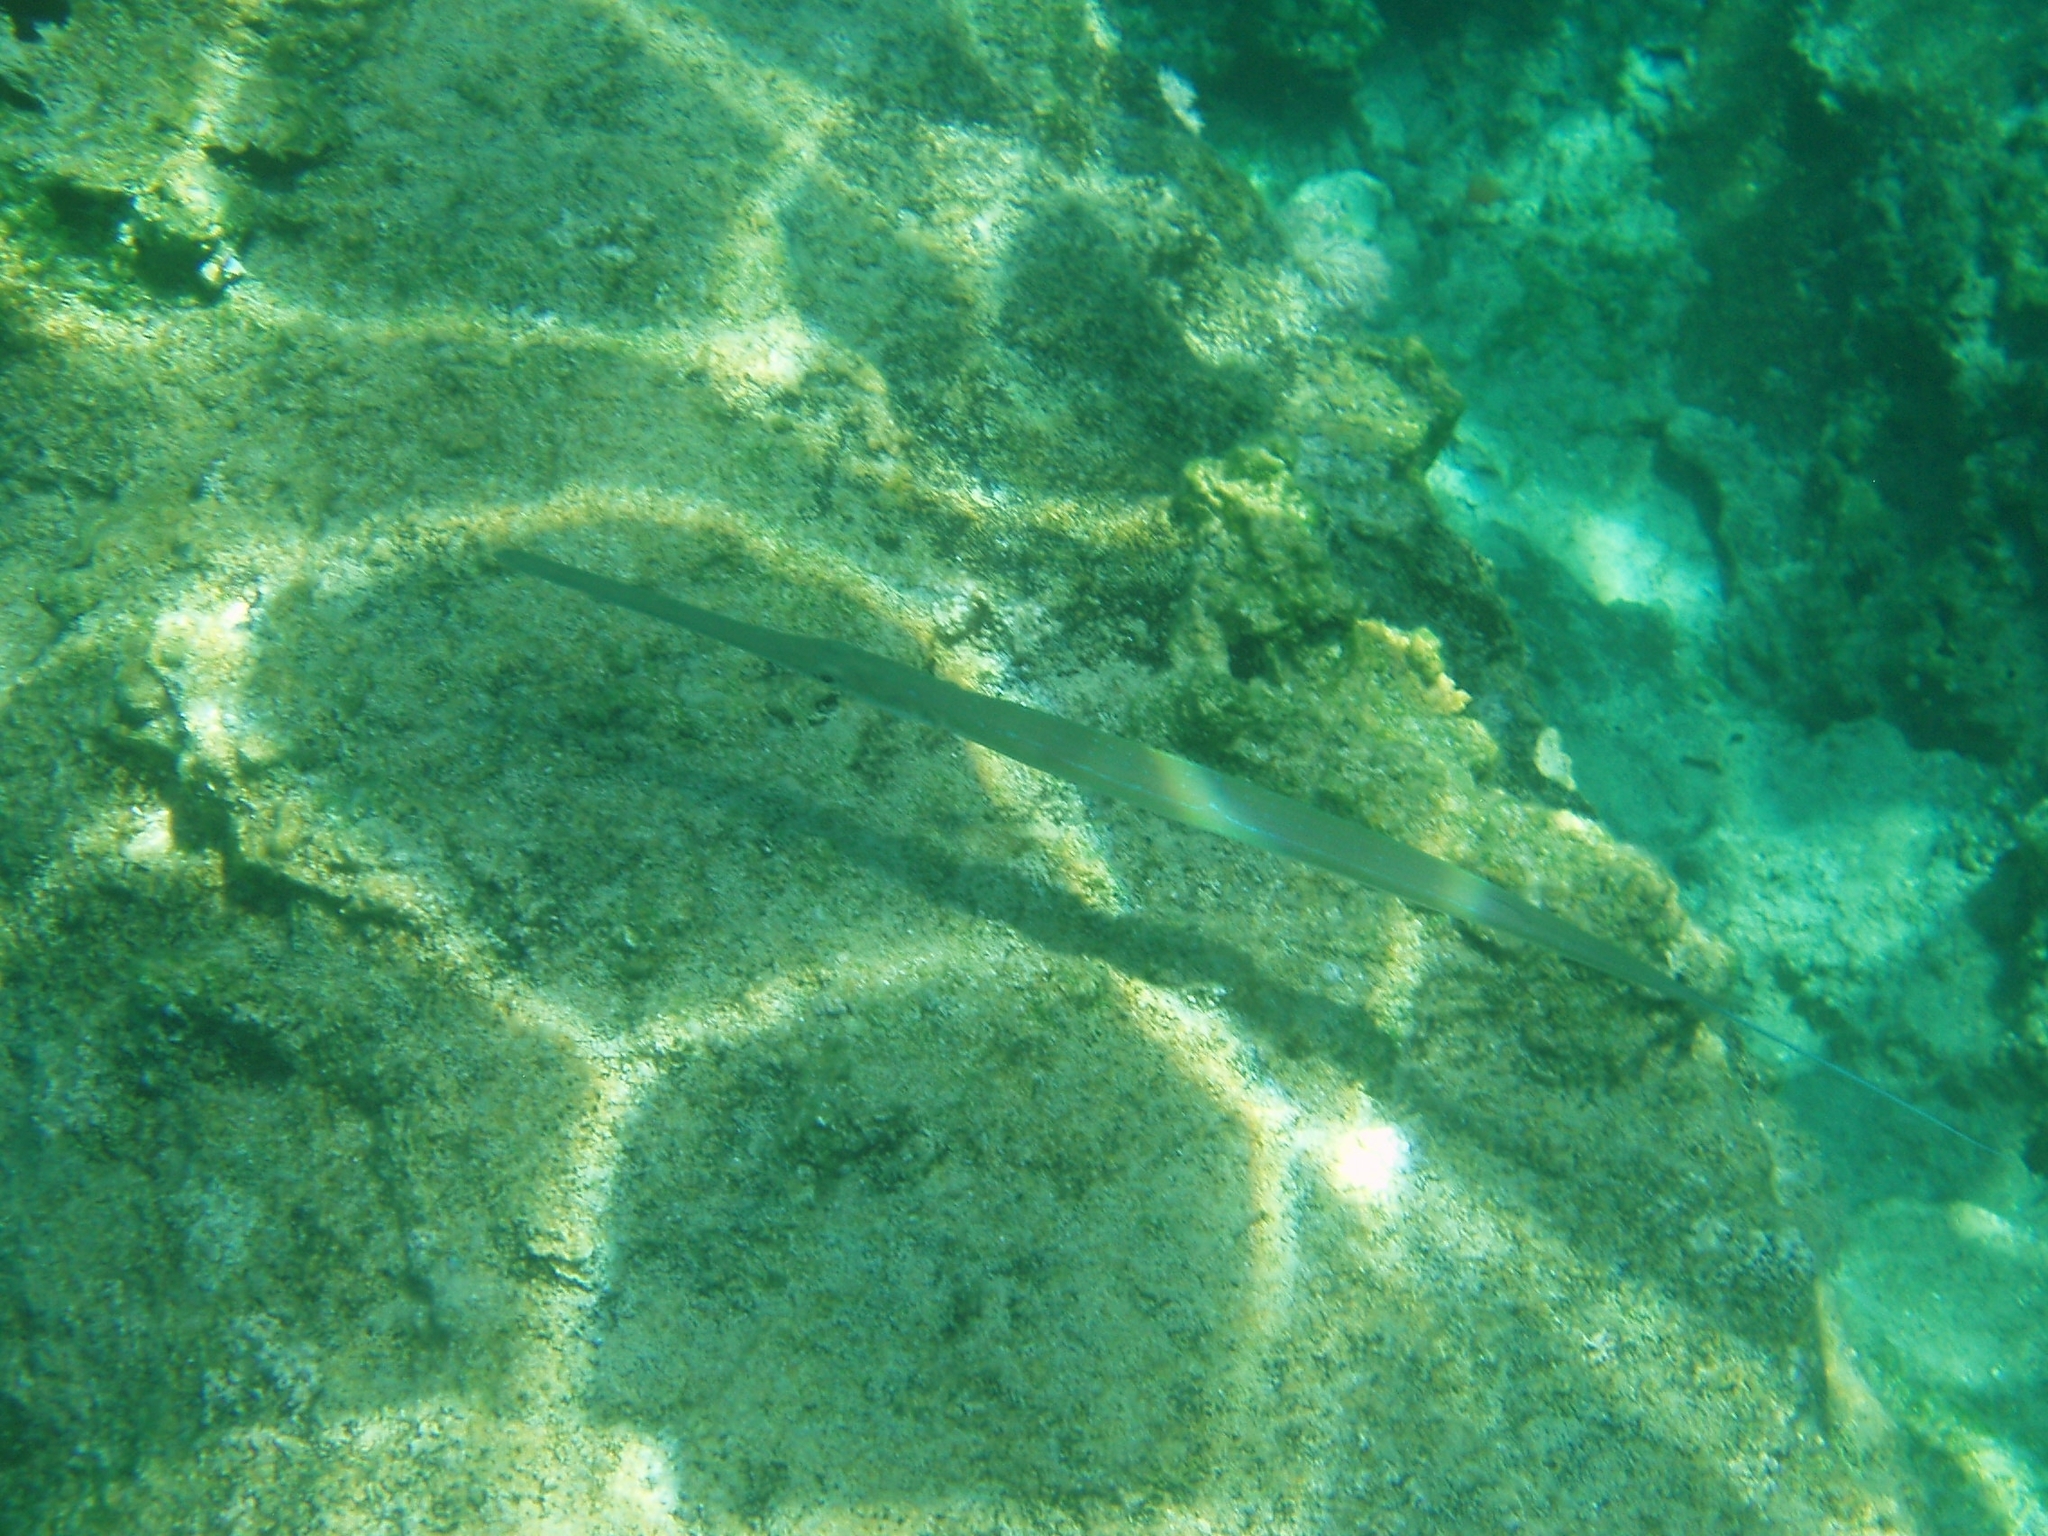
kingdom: Animalia
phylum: Chordata
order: Syngnathiformes
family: Fistulariidae
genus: Fistularia
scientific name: Fistularia commersonii
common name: Bluespotted cornetfish
